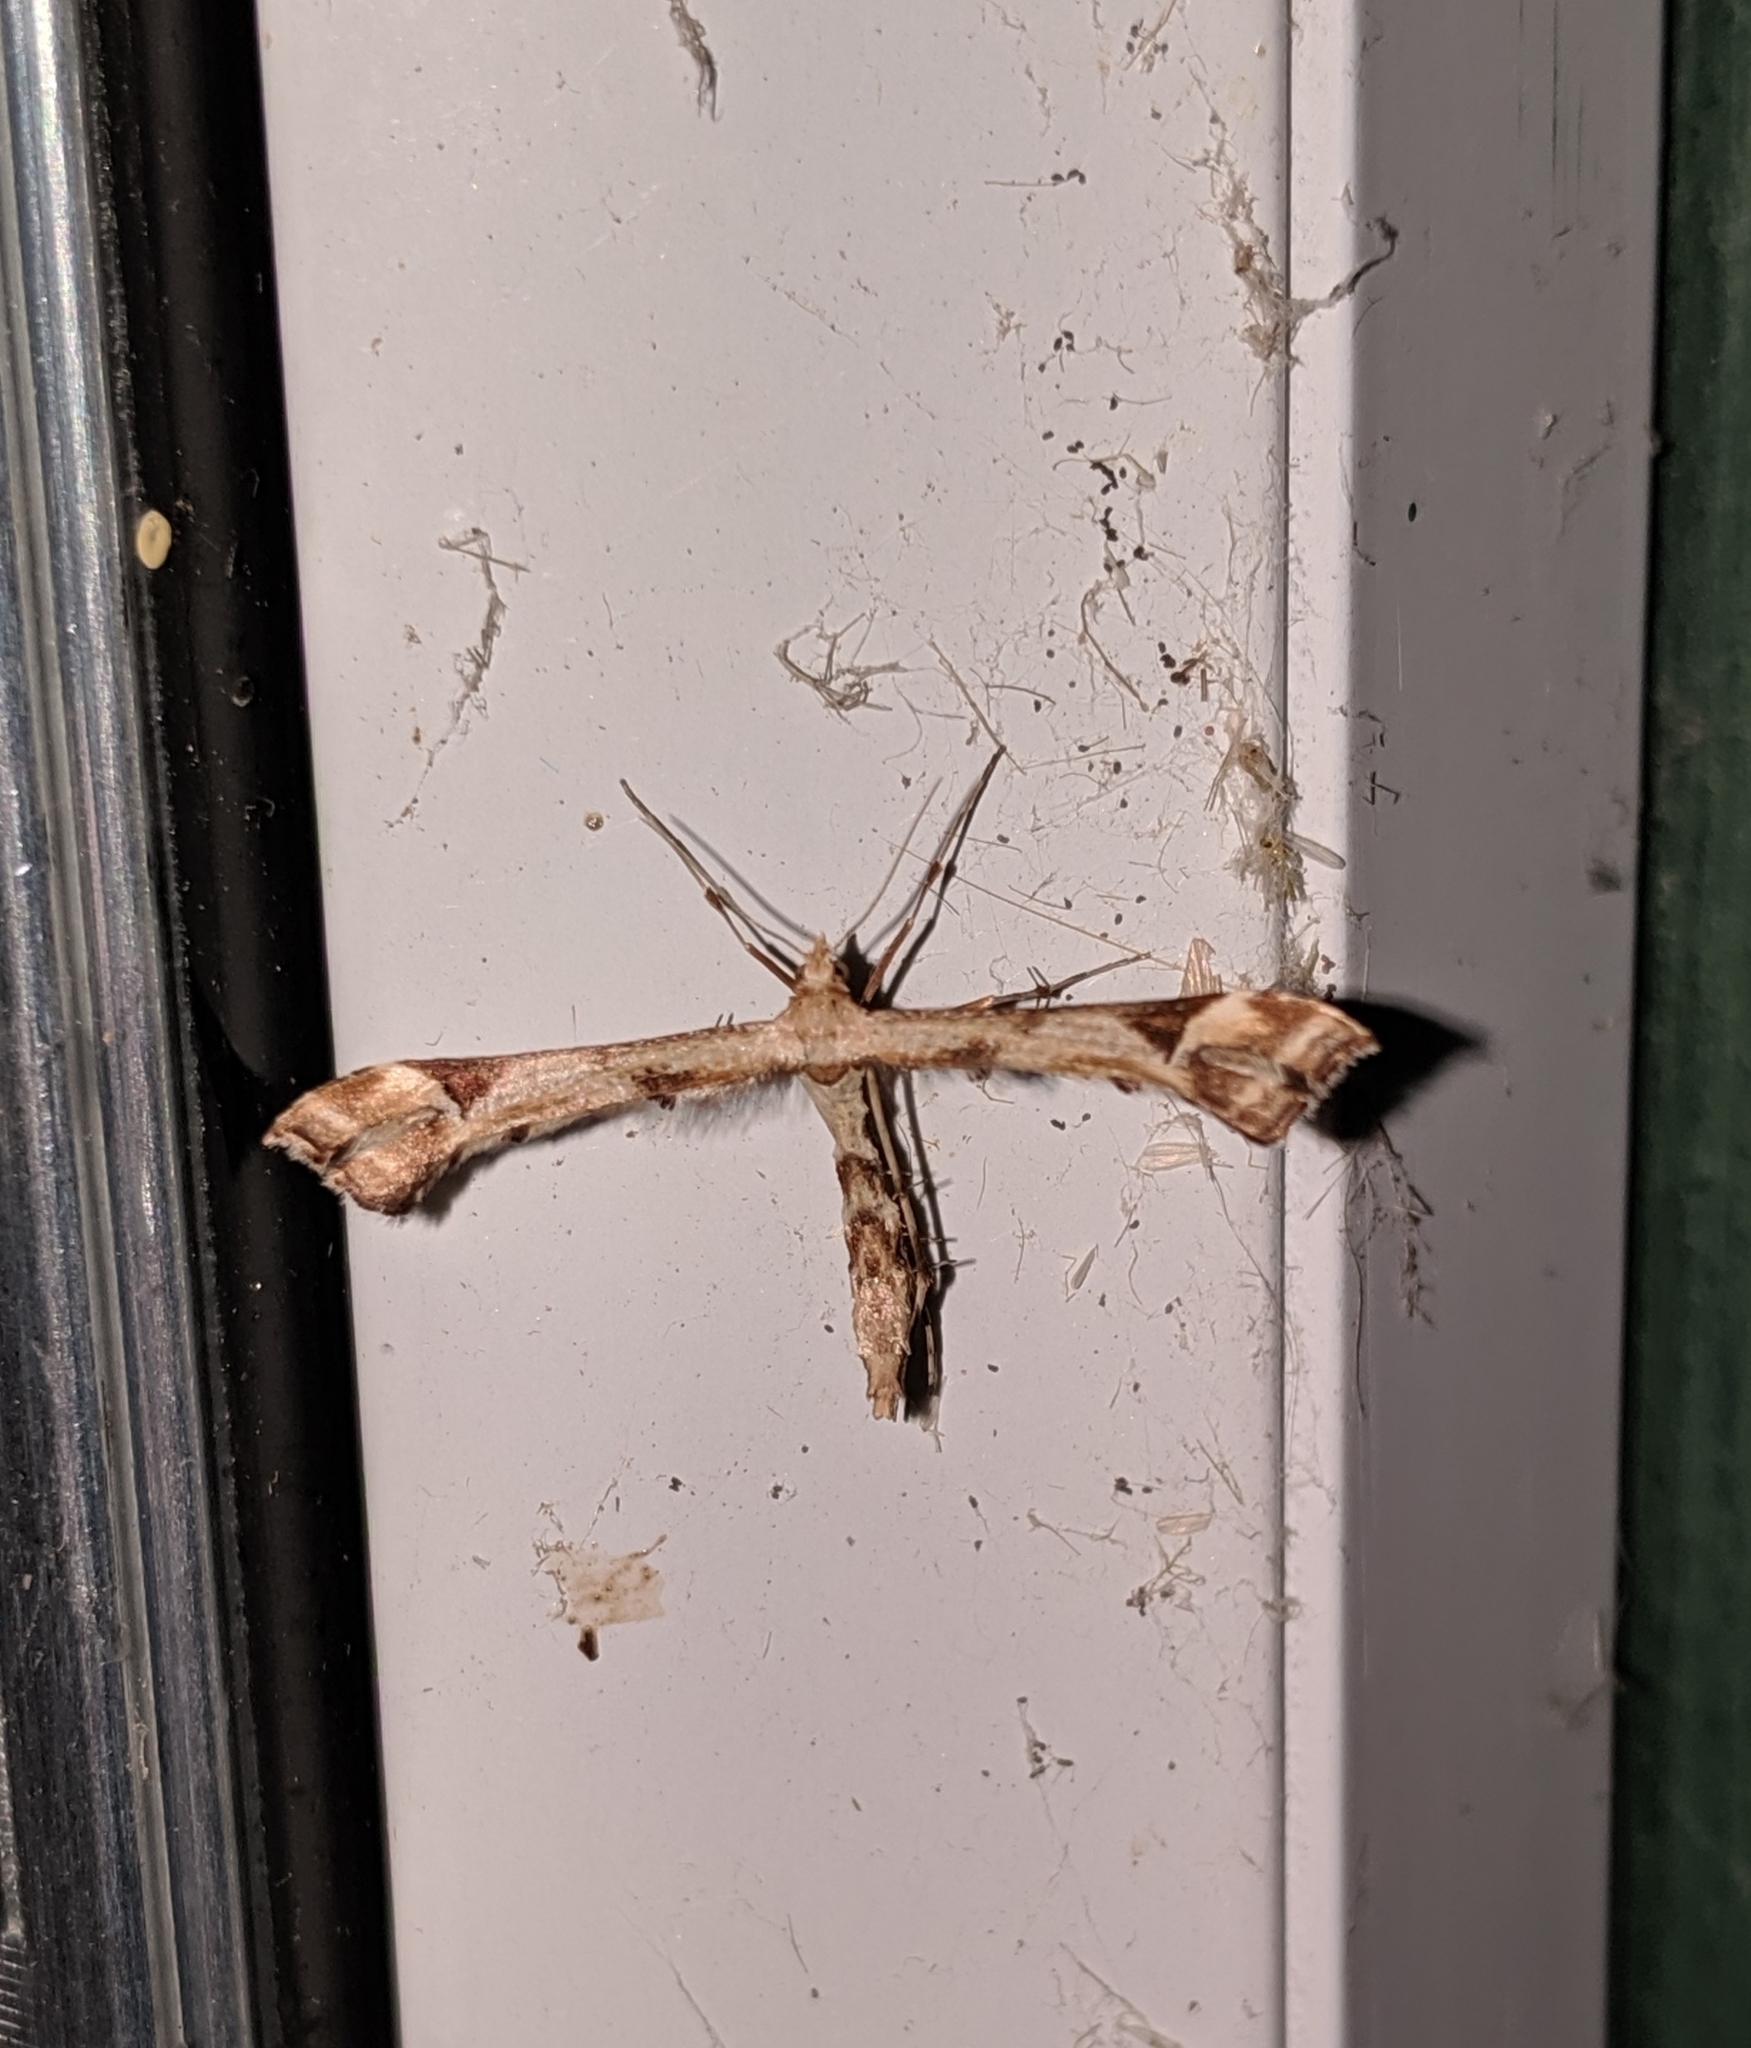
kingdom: Animalia
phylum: Arthropoda
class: Insecta
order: Lepidoptera
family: Pterophoridae
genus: Platyptilia
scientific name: Platyptilia carduidactylus
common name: Artichoke plume moth
